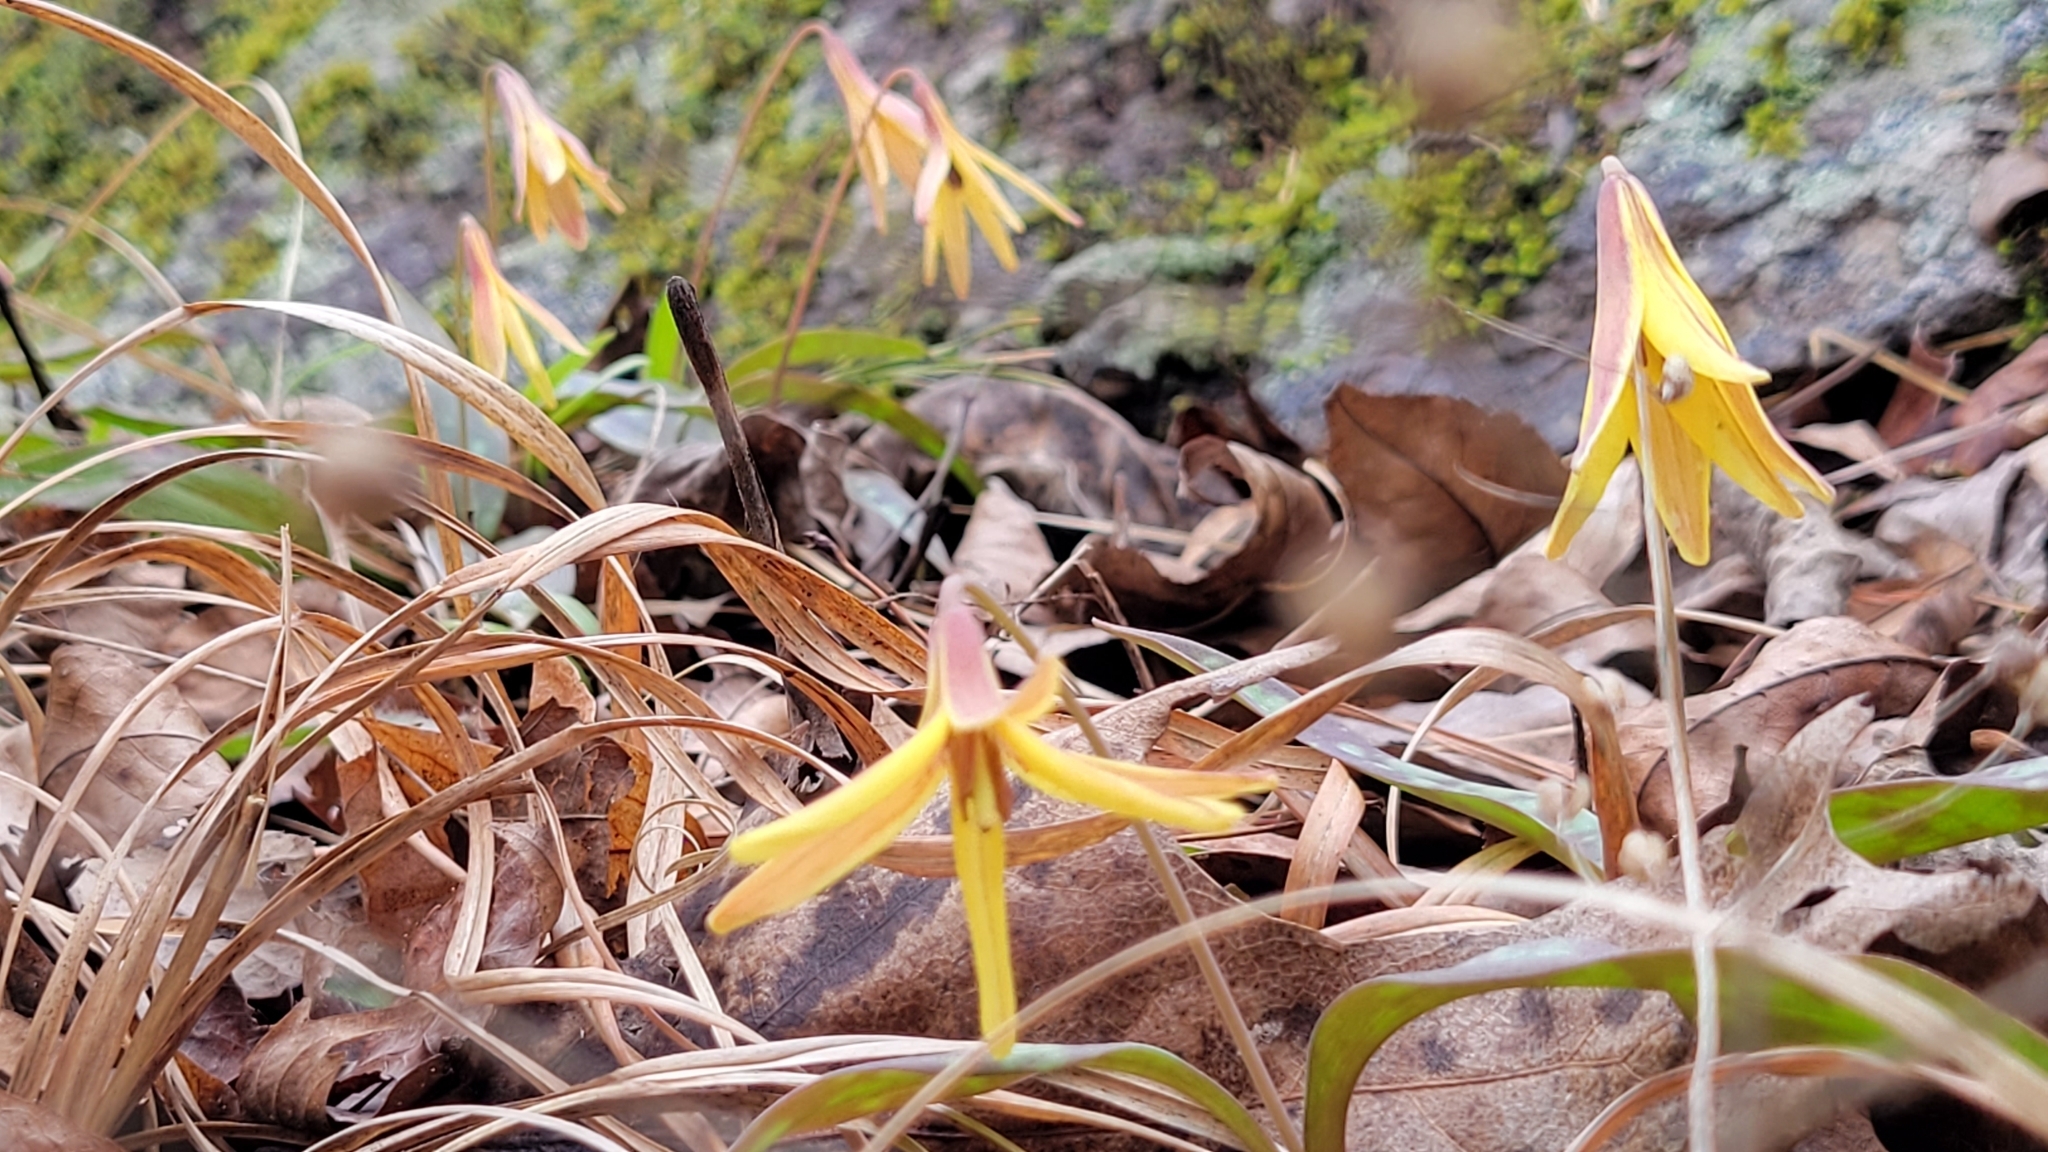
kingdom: Plantae
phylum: Tracheophyta
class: Liliopsida
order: Liliales
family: Liliaceae
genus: Erythronium
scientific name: Erythronium umbilicatum
